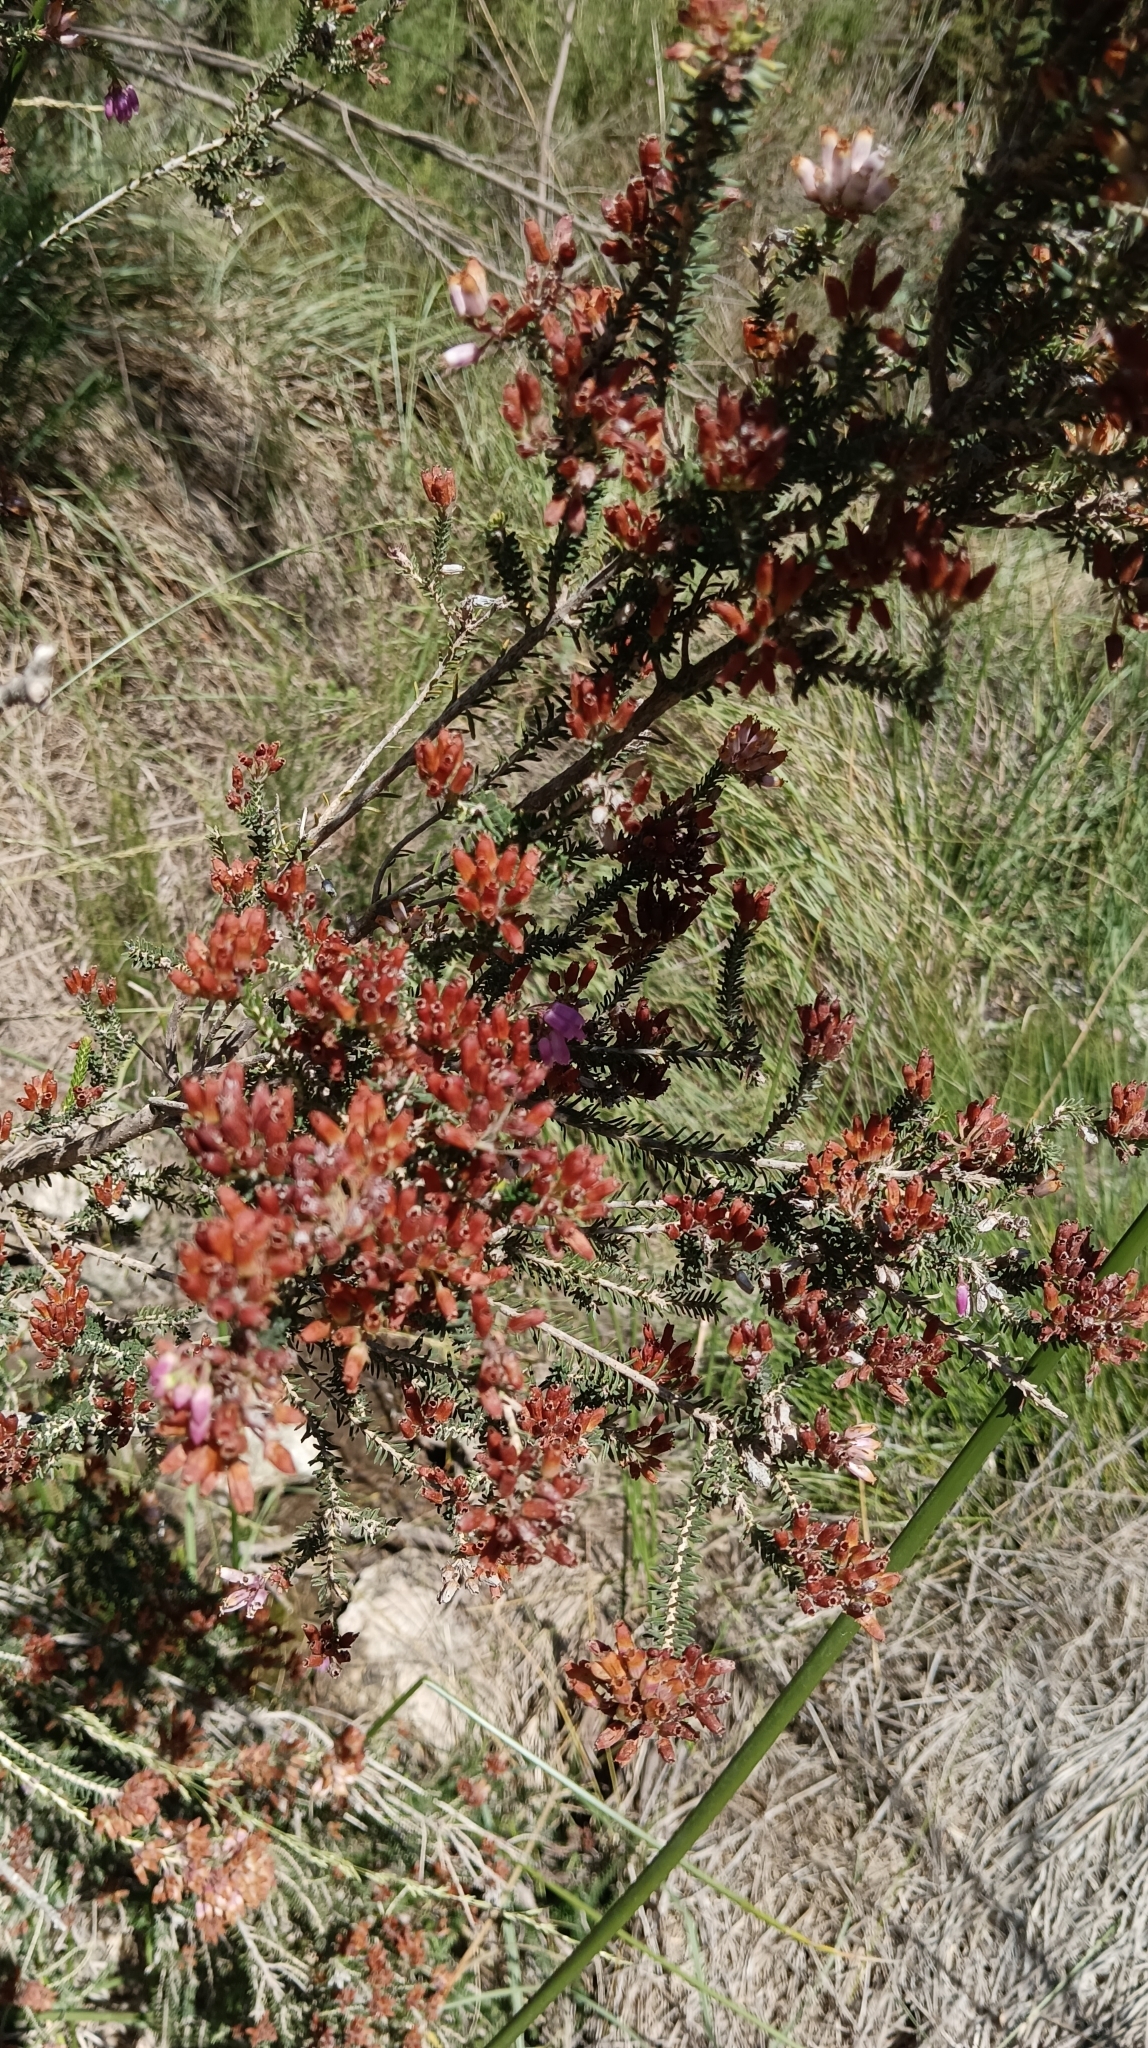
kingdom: Plantae
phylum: Tracheophyta
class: Magnoliopsida
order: Ericales
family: Ericaceae
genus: Erica
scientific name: Erica terminalis
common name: Corsican heath
